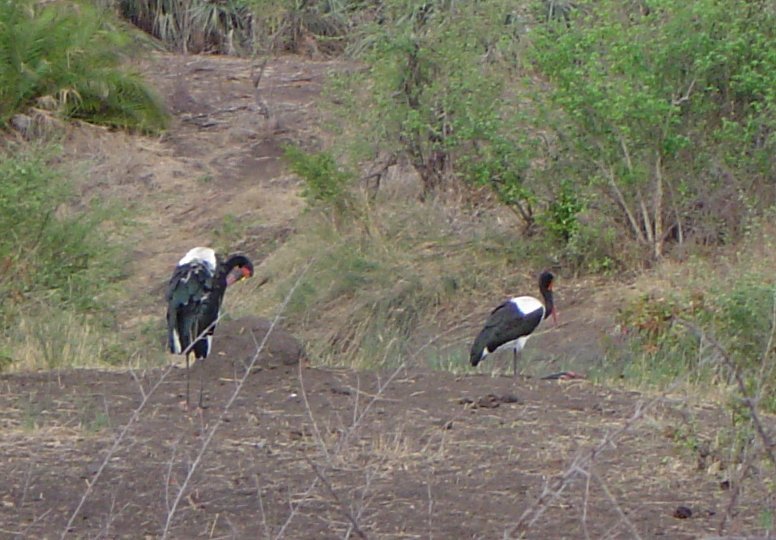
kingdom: Animalia
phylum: Chordata
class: Aves
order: Ciconiiformes
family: Ciconiidae
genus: Ephippiorhynchus
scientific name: Ephippiorhynchus senegalensis
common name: Saddle-billed stork
